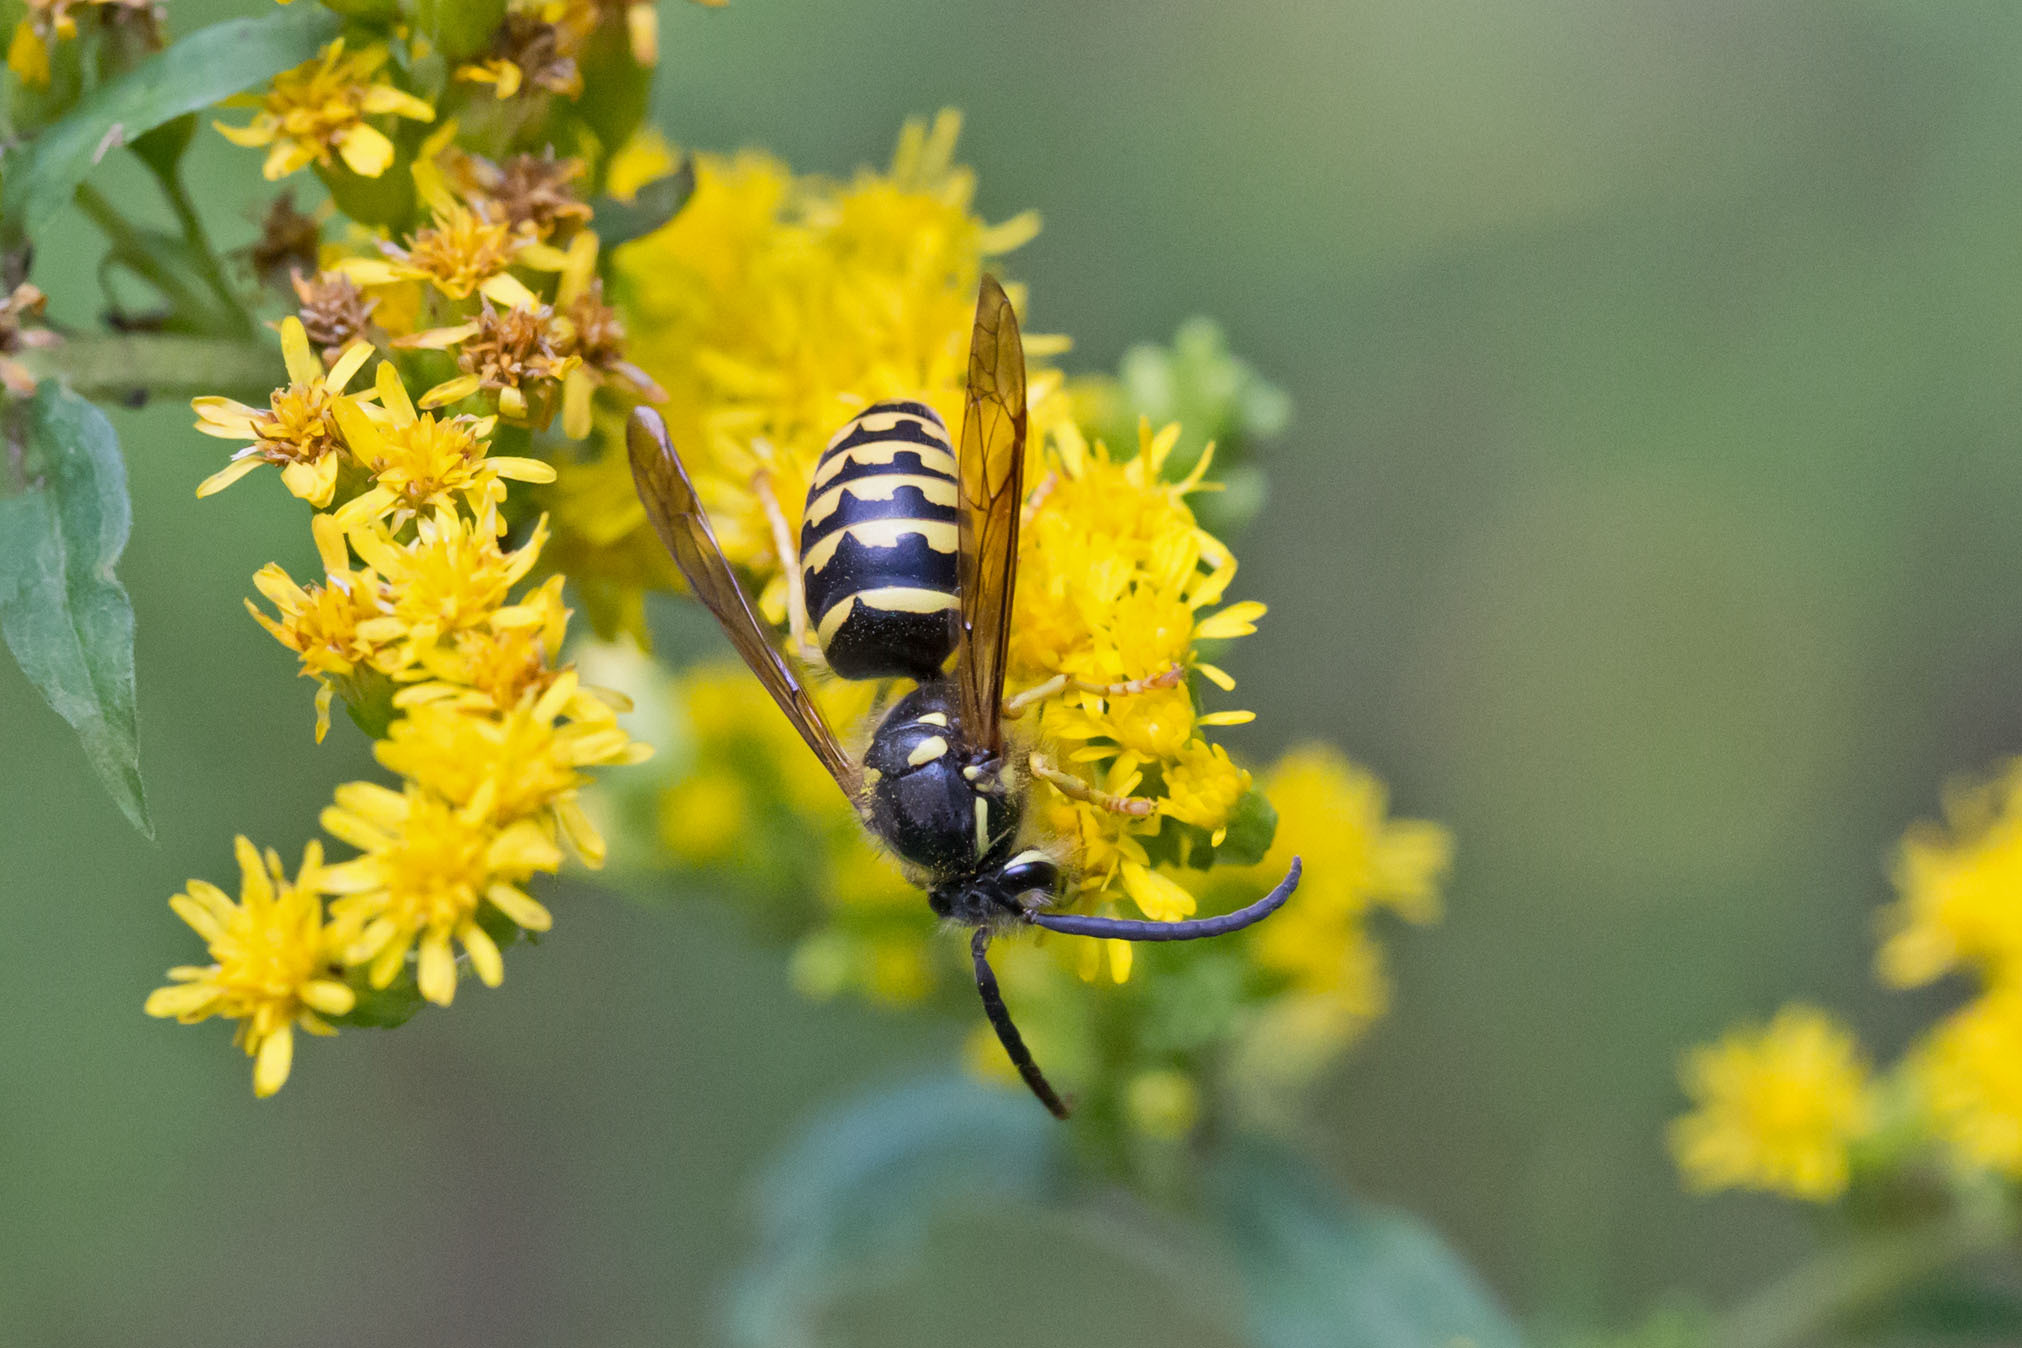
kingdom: Animalia
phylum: Arthropoda
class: Insecta
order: Hymenoptera
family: Vespidae
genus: Dolichovespula
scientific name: Dolichovespula arenaria
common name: Aerial yellowjacket
